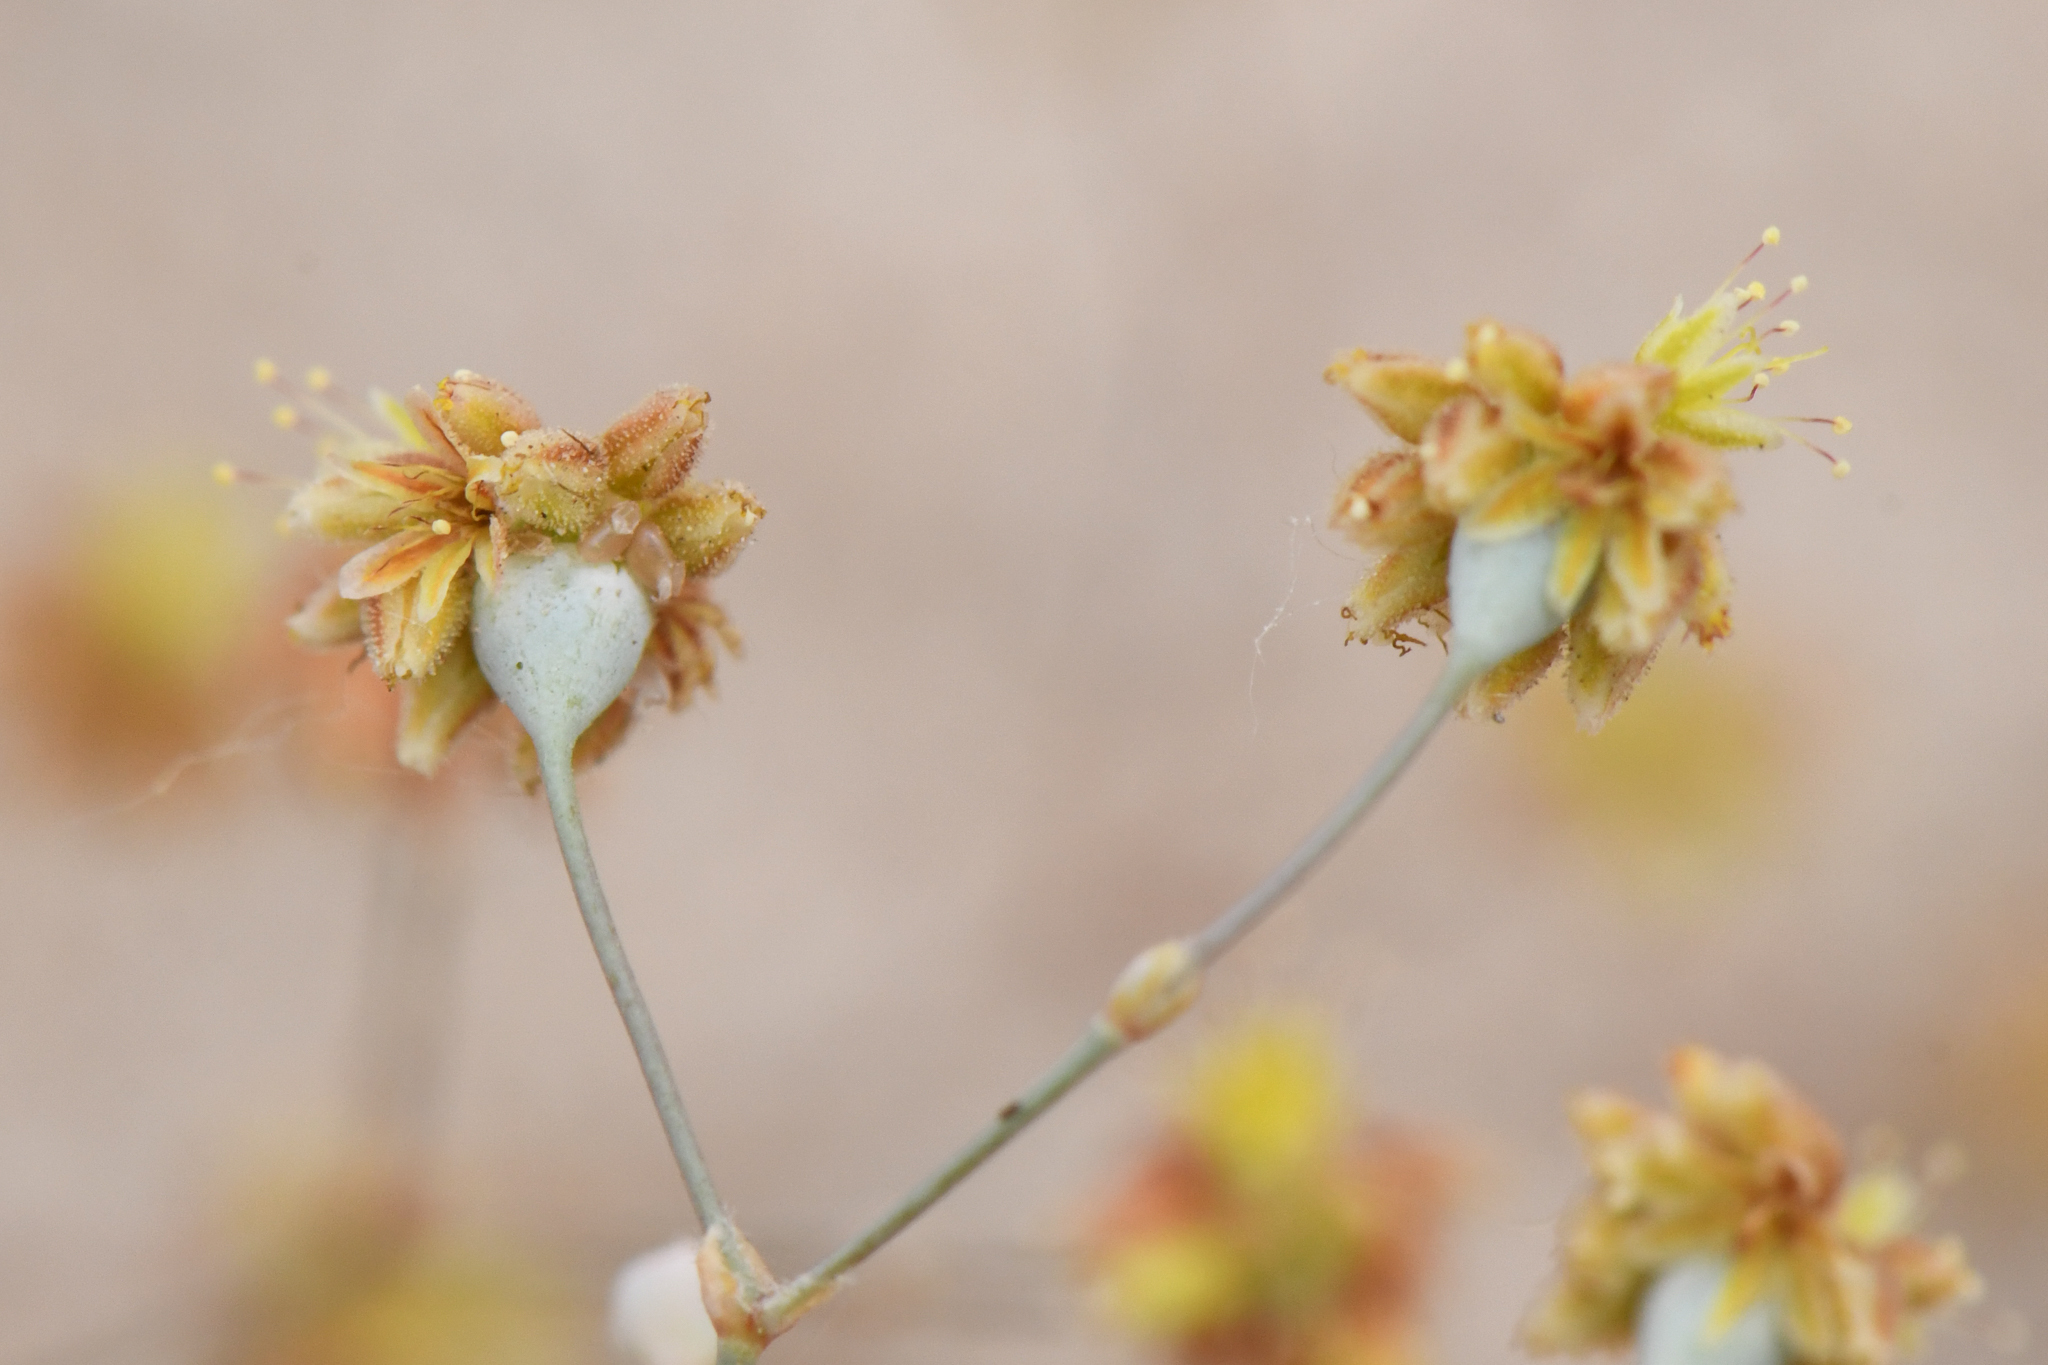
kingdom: Plantae
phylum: Tracheophyta
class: Magnoliopsida
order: Caryophyllales
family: Polygonaceae
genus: Eriogonum
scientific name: Eriogonum reniforme
